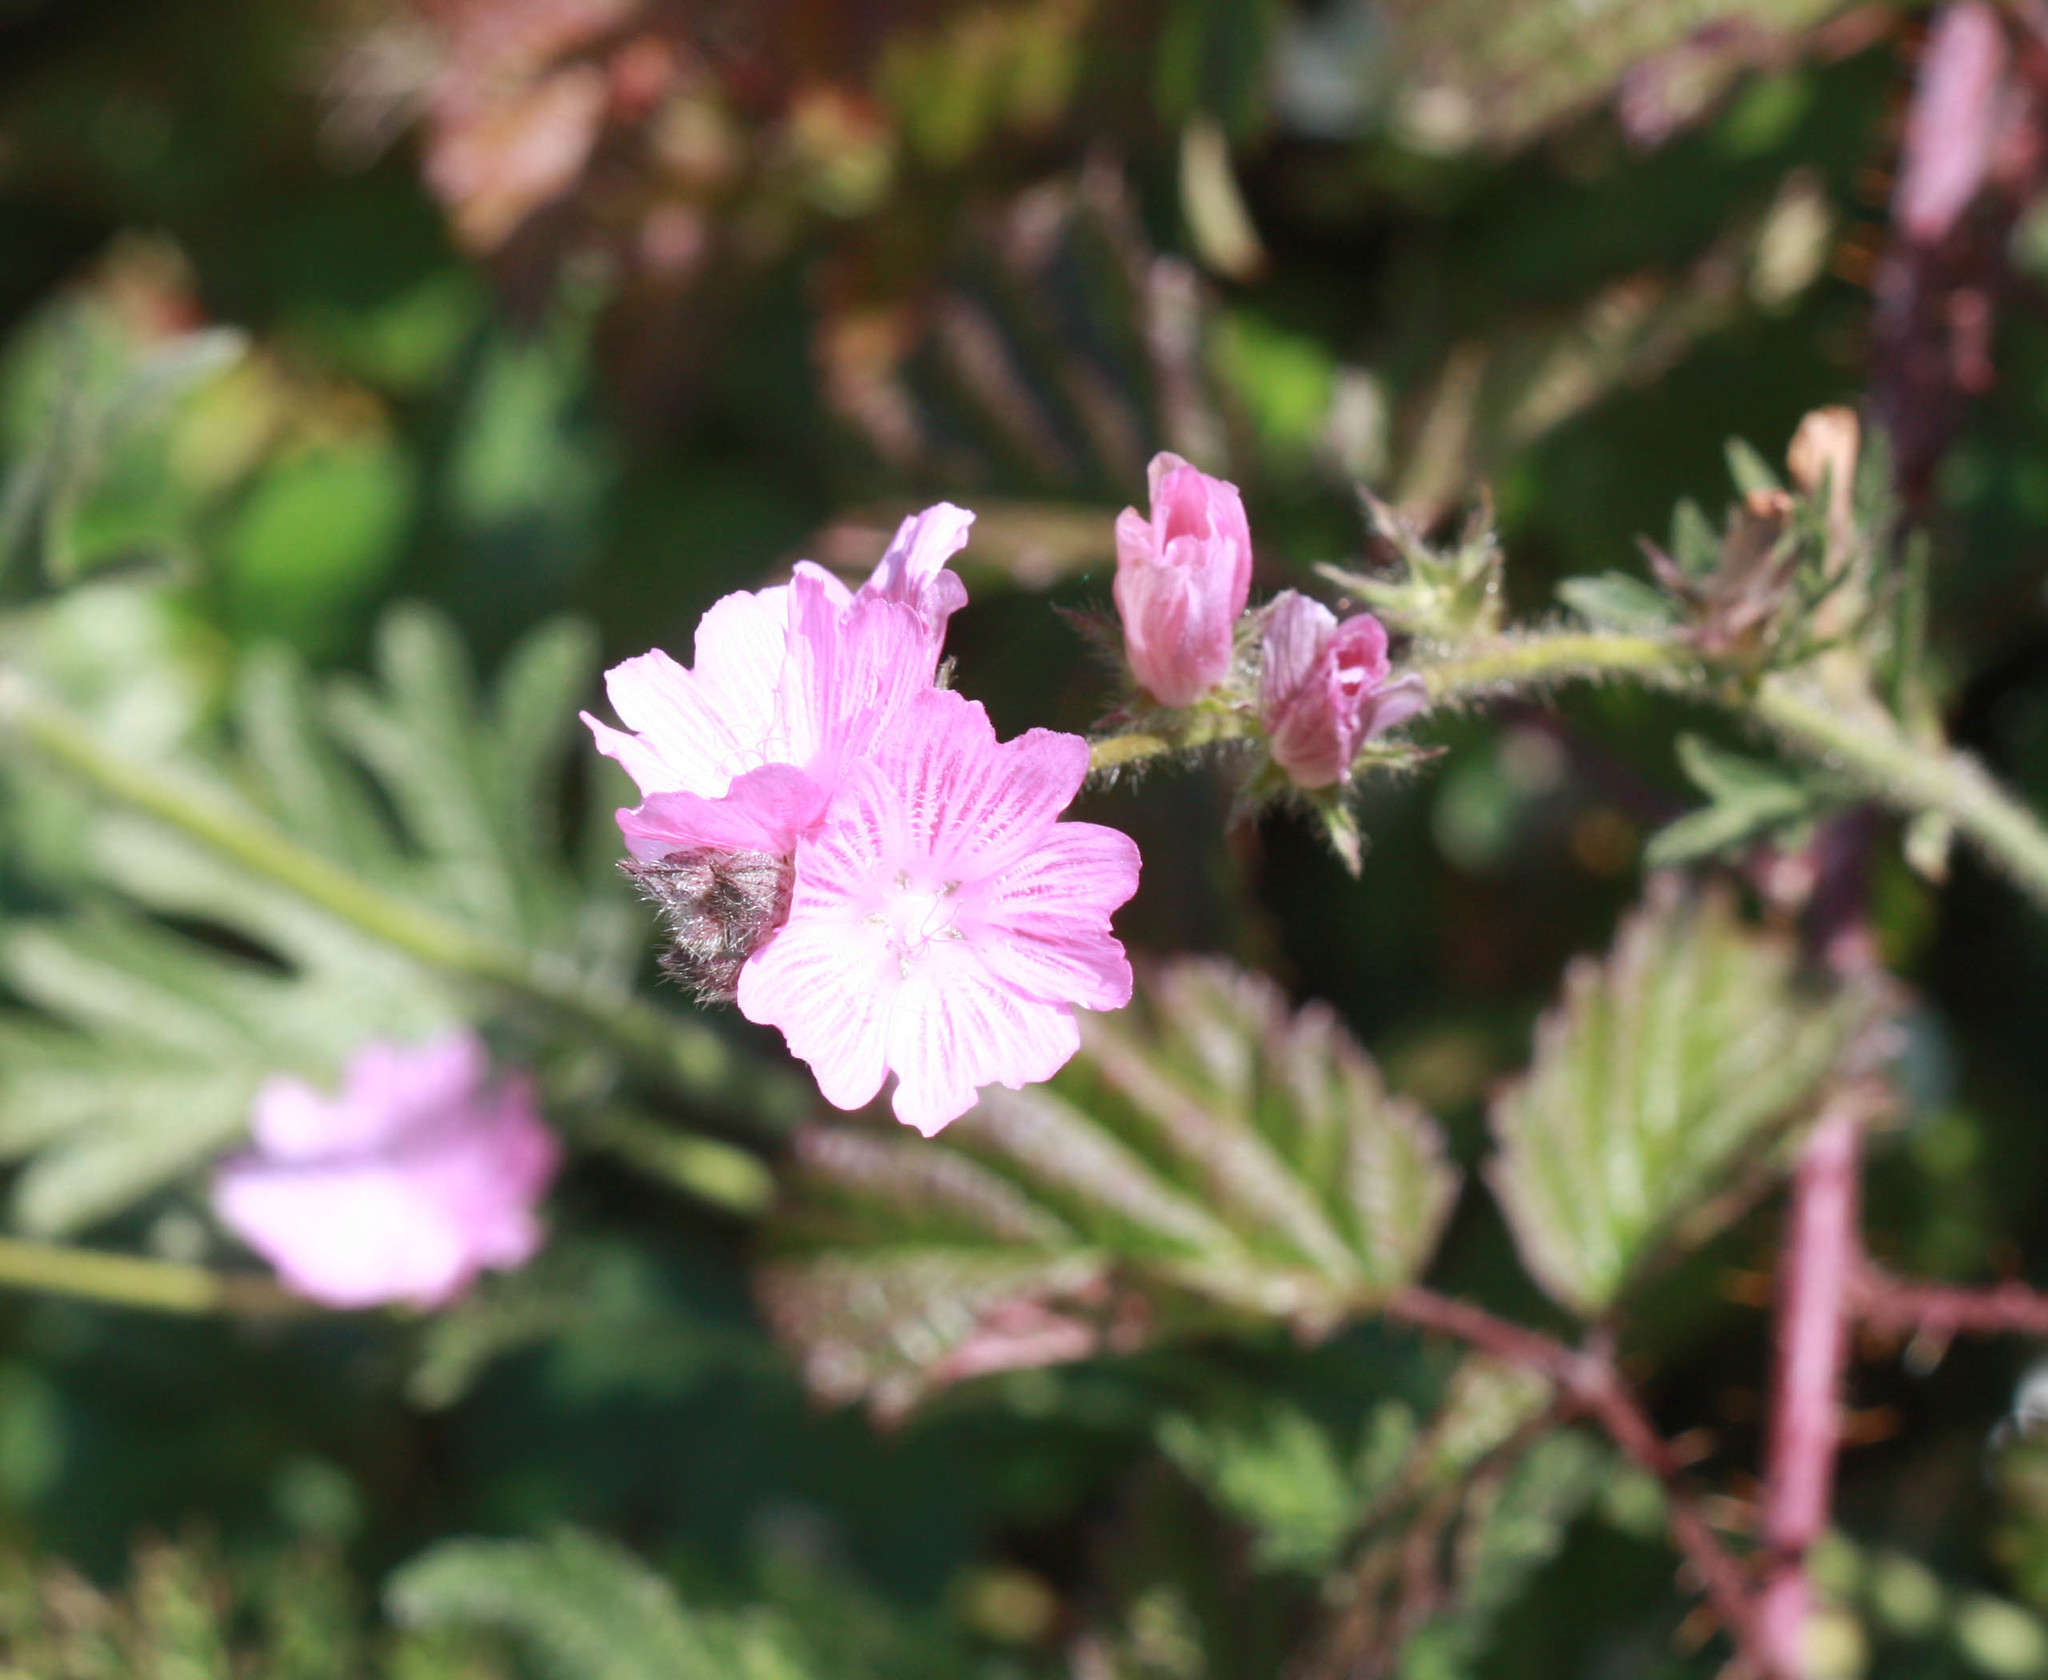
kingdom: Plantae
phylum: Tracheophyta
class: Magnoliopsida
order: Malvales
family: Malvaceae
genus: Sidalcea
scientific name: Sidalcea malviflora
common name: Greek mallow
